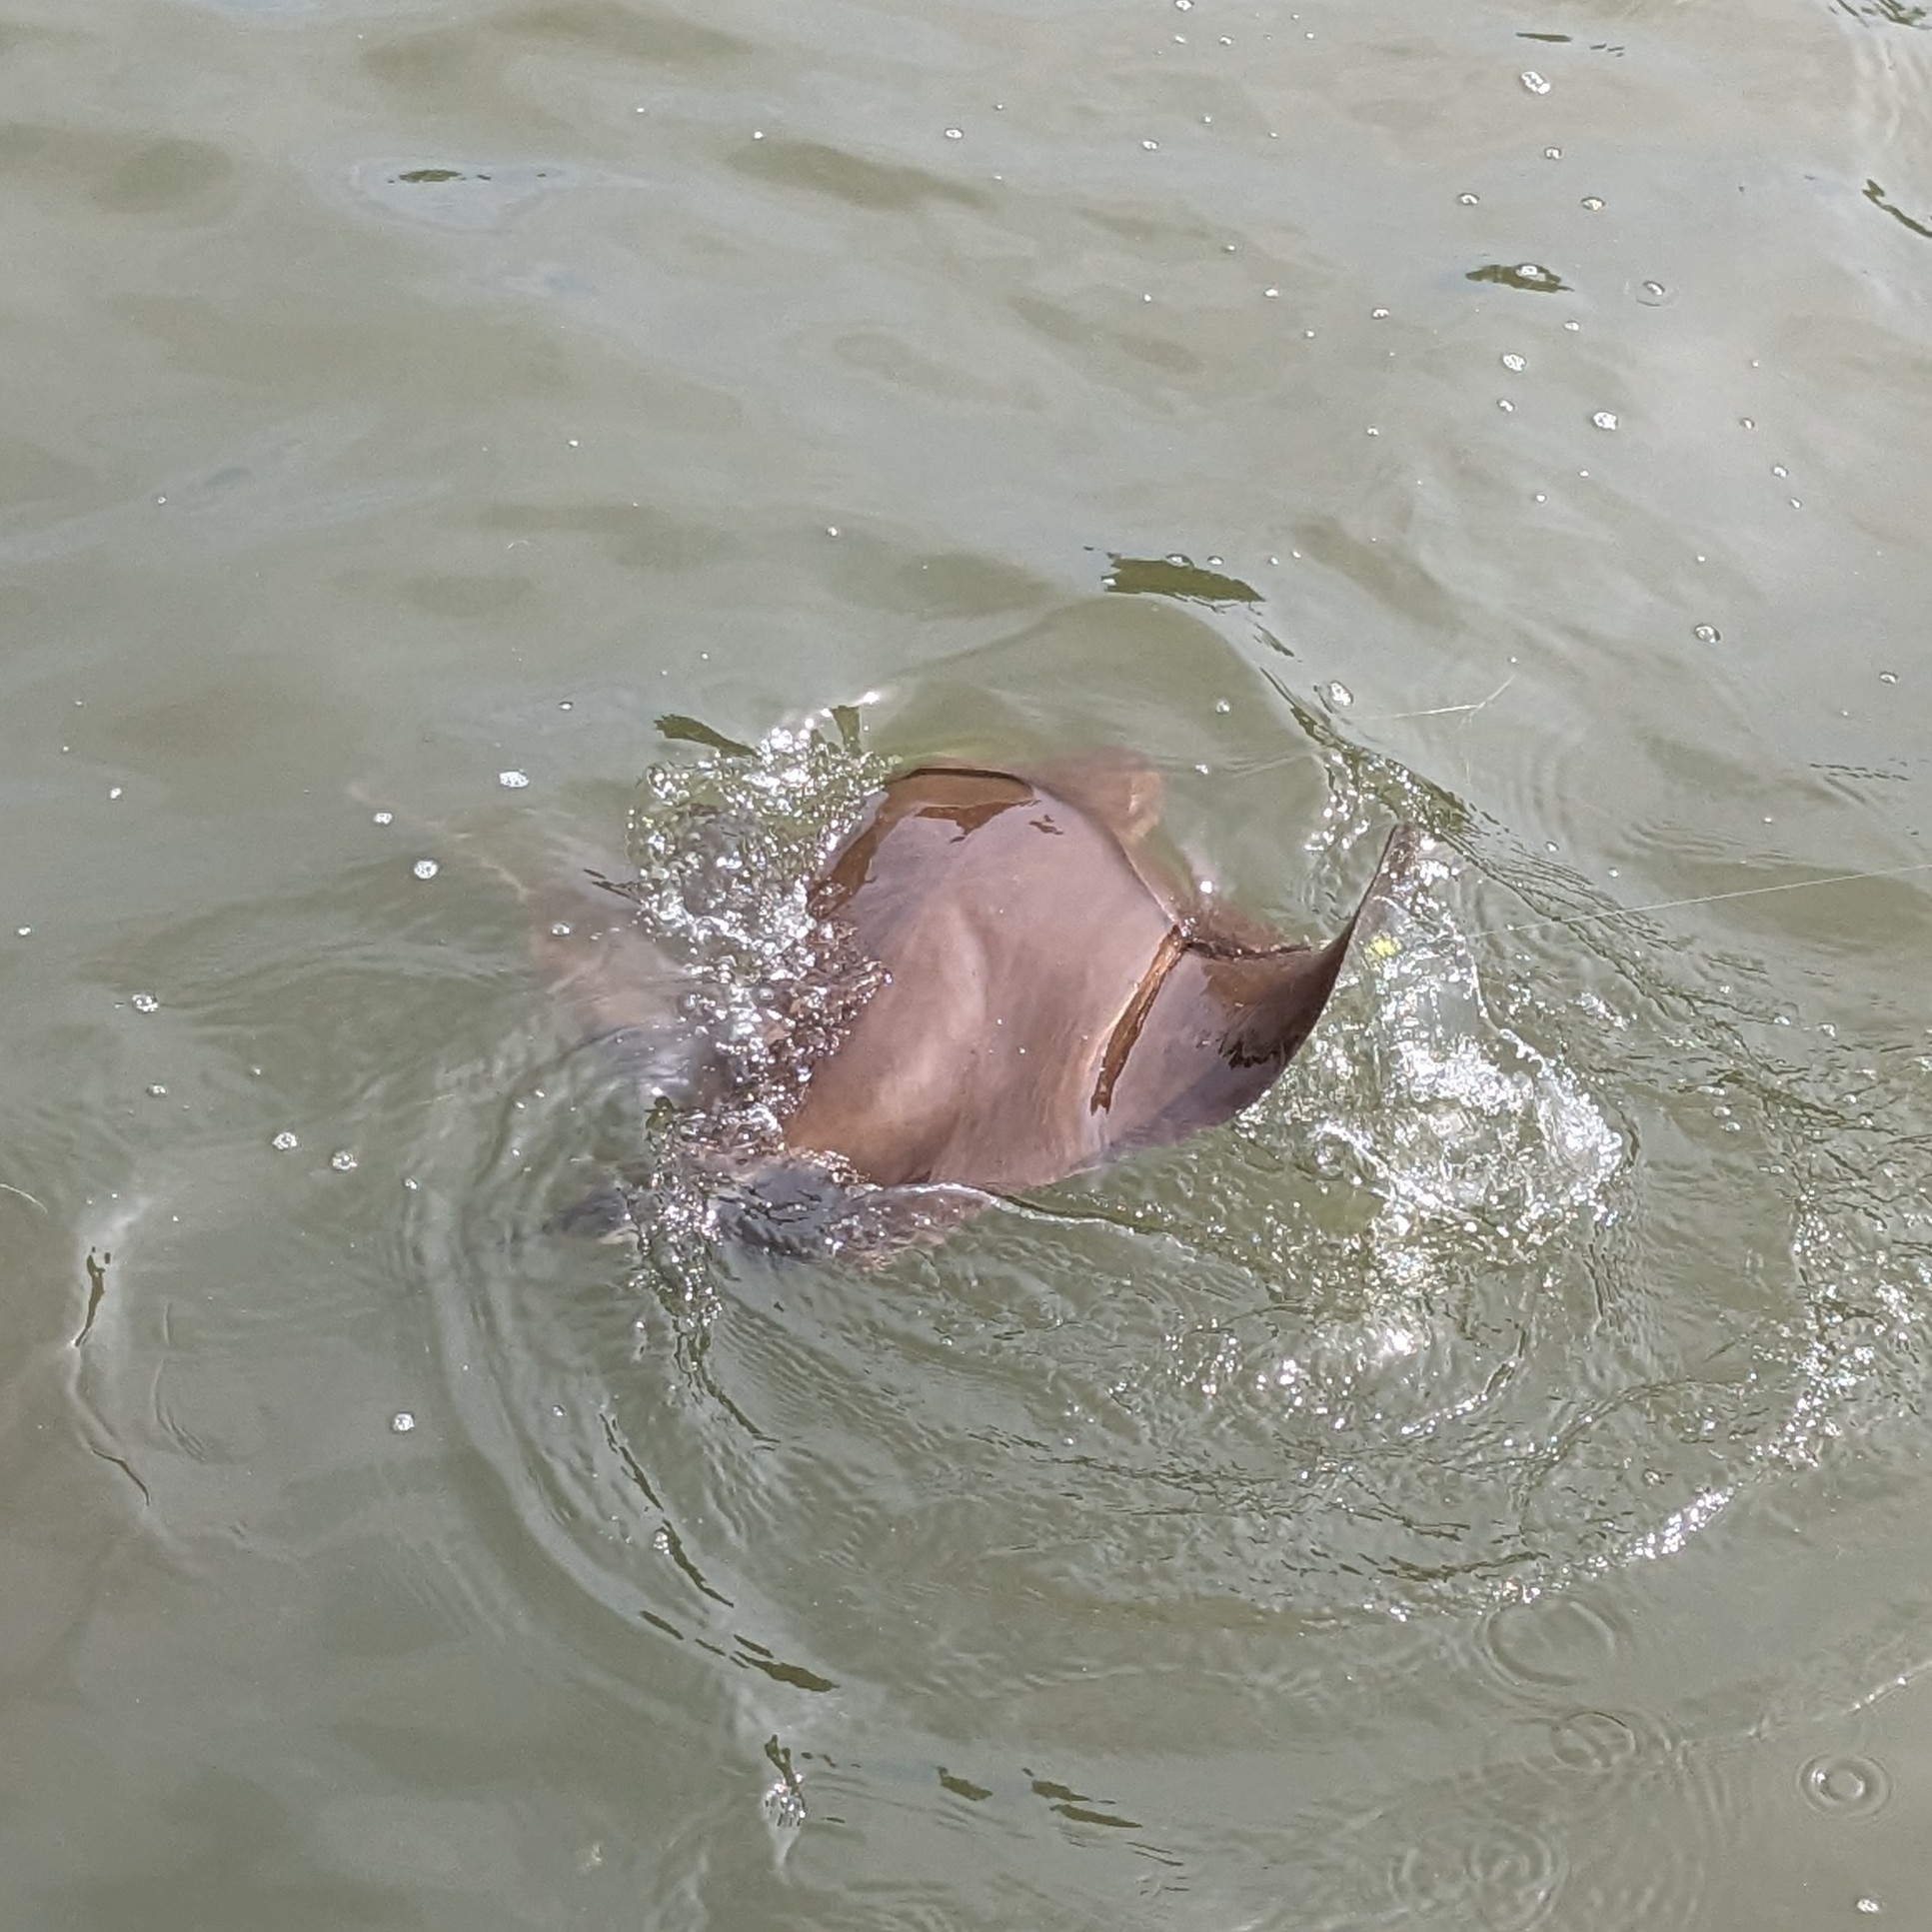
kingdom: Animalia
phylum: Chordata
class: Elasmobranchii
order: Myliobatiformes
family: Myliobatidae
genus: Rhinoptera
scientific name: Rhinoptera bonasus
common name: Cownose ray
